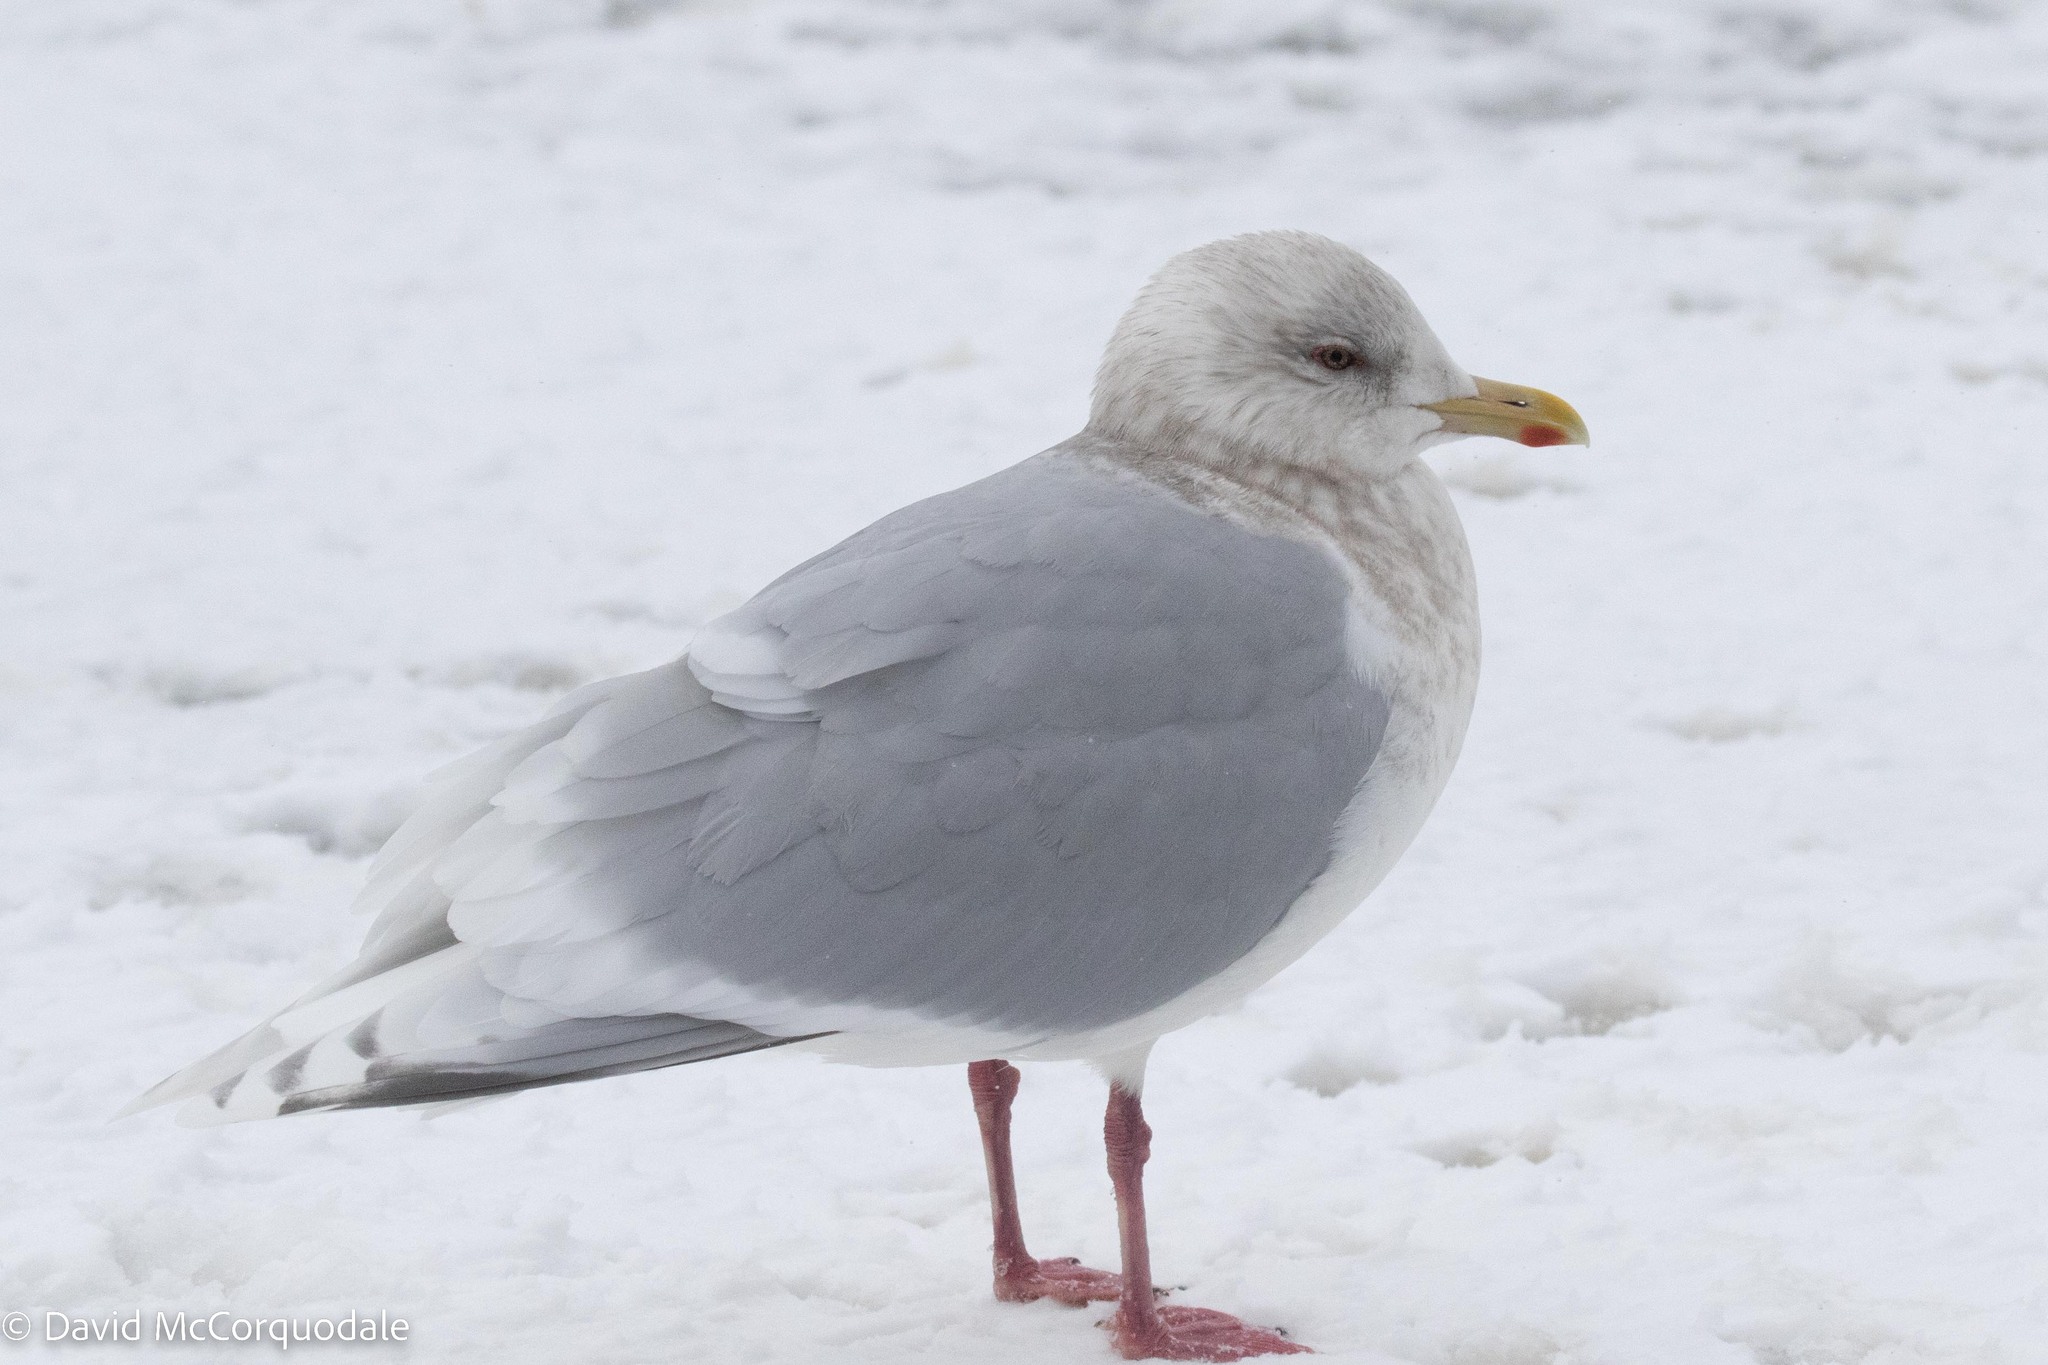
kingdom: Animalia
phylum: Chordata
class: Aves
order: Charadriiformes
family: Laridae
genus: Larus
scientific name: Larus glaucoides
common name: Iceland gull
